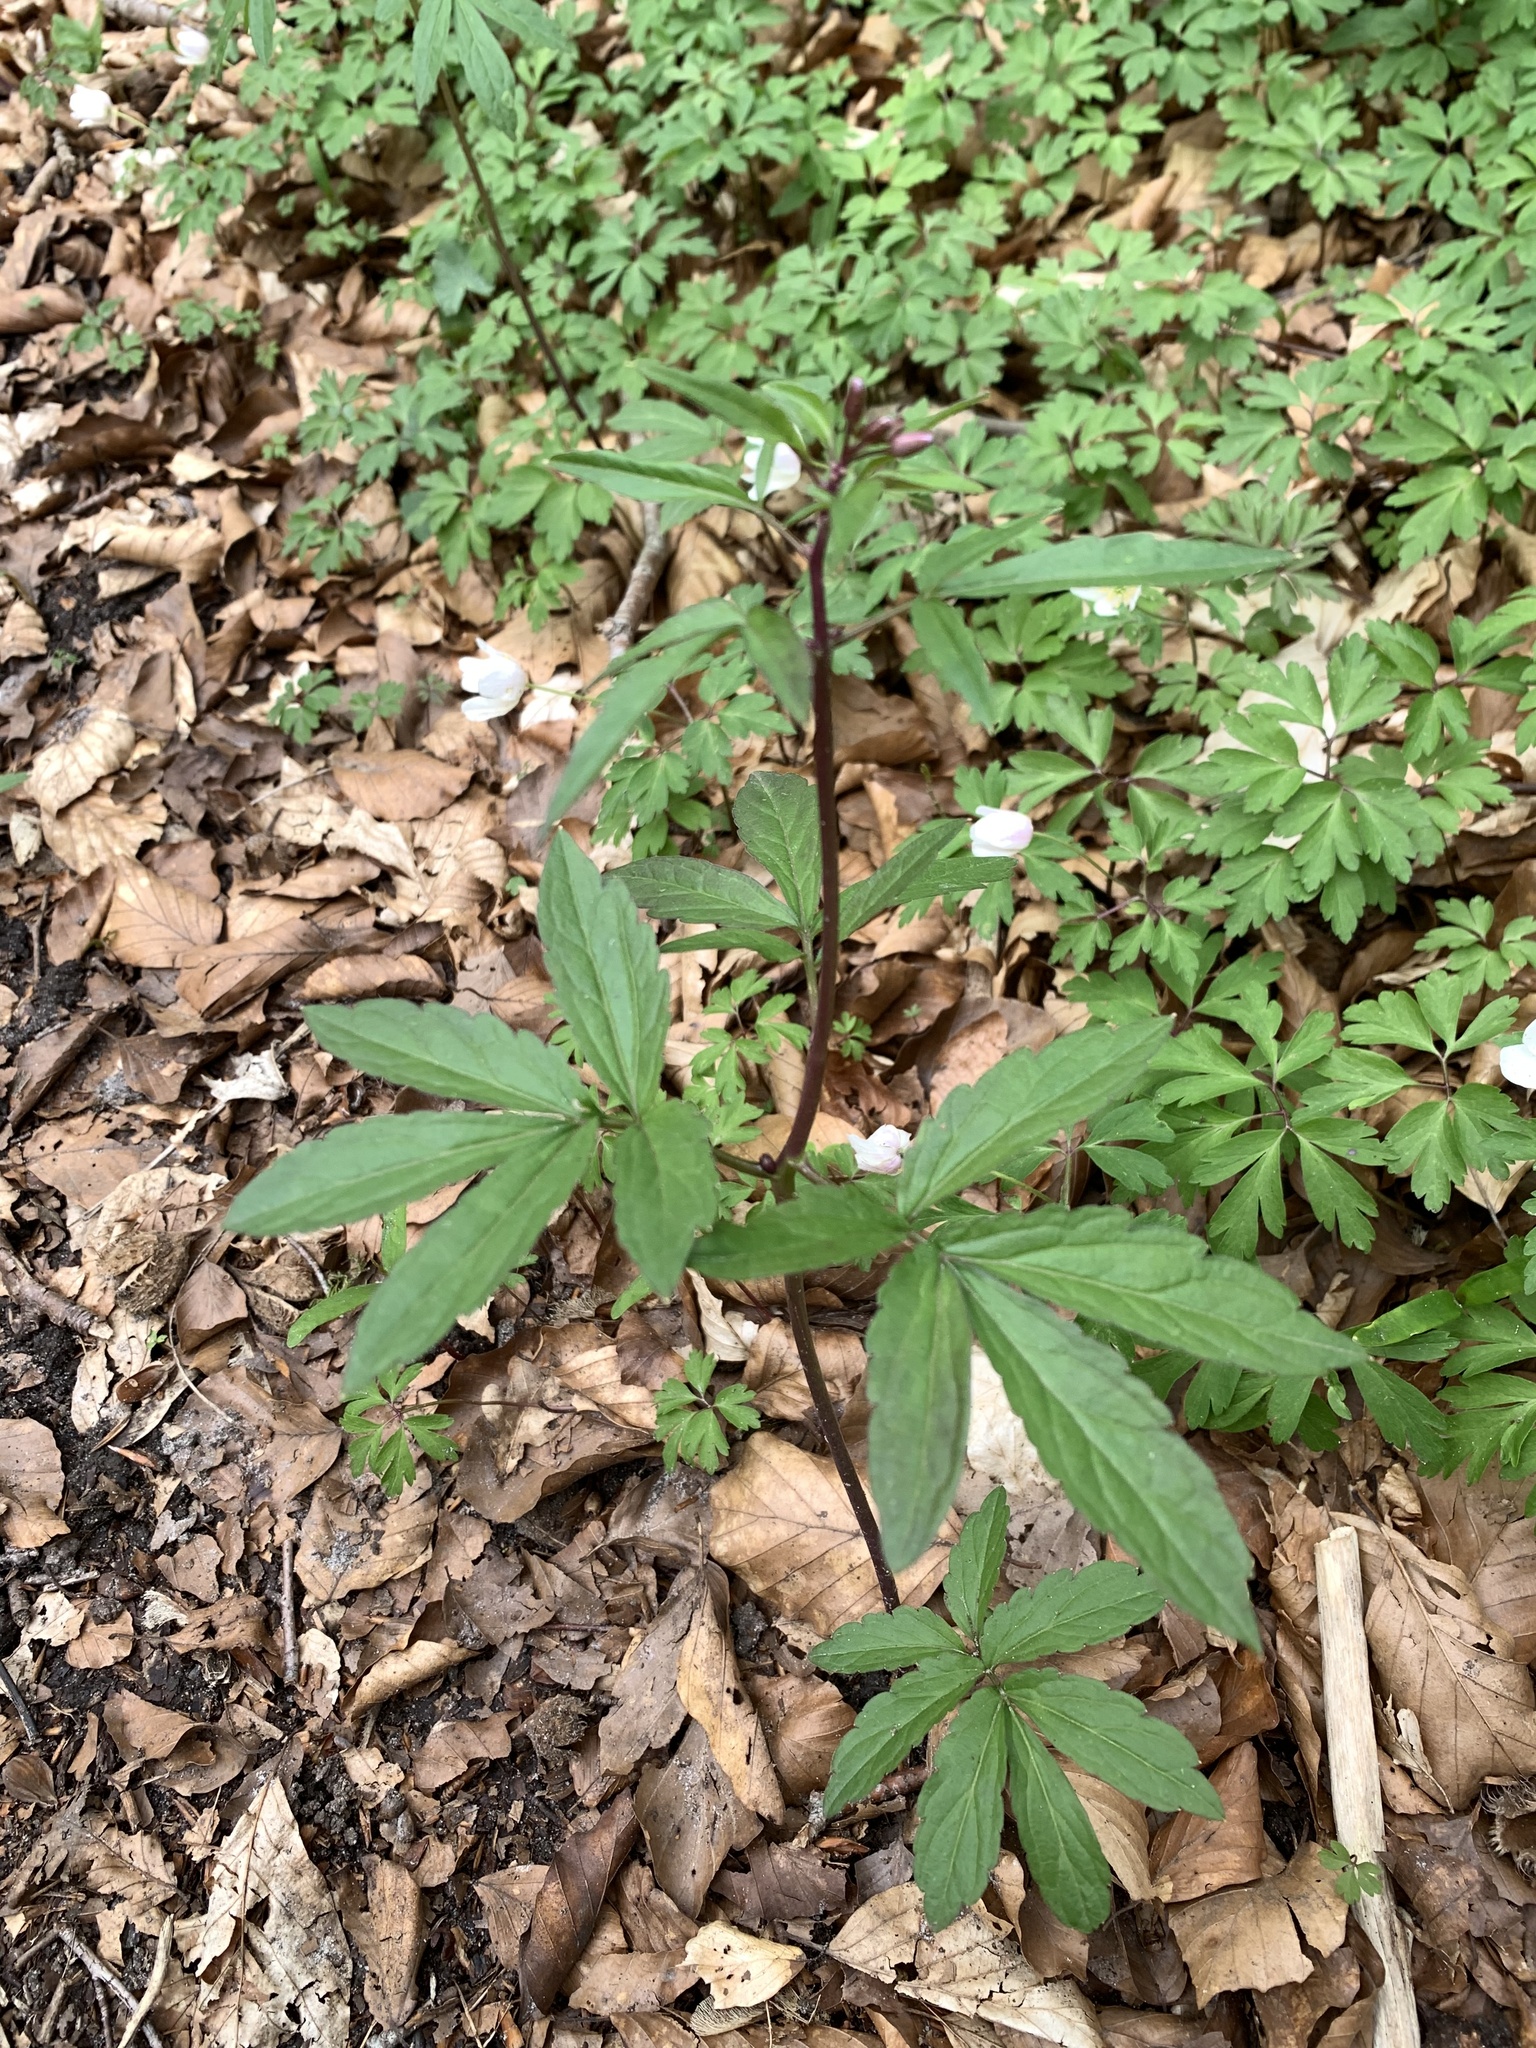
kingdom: Plantae
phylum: Tracheophyta
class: Magnoliopsida
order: Brassicales
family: Brassicaceae
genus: Cardamine
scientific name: Cardamine bulbifera
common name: Coralroot bittercress
